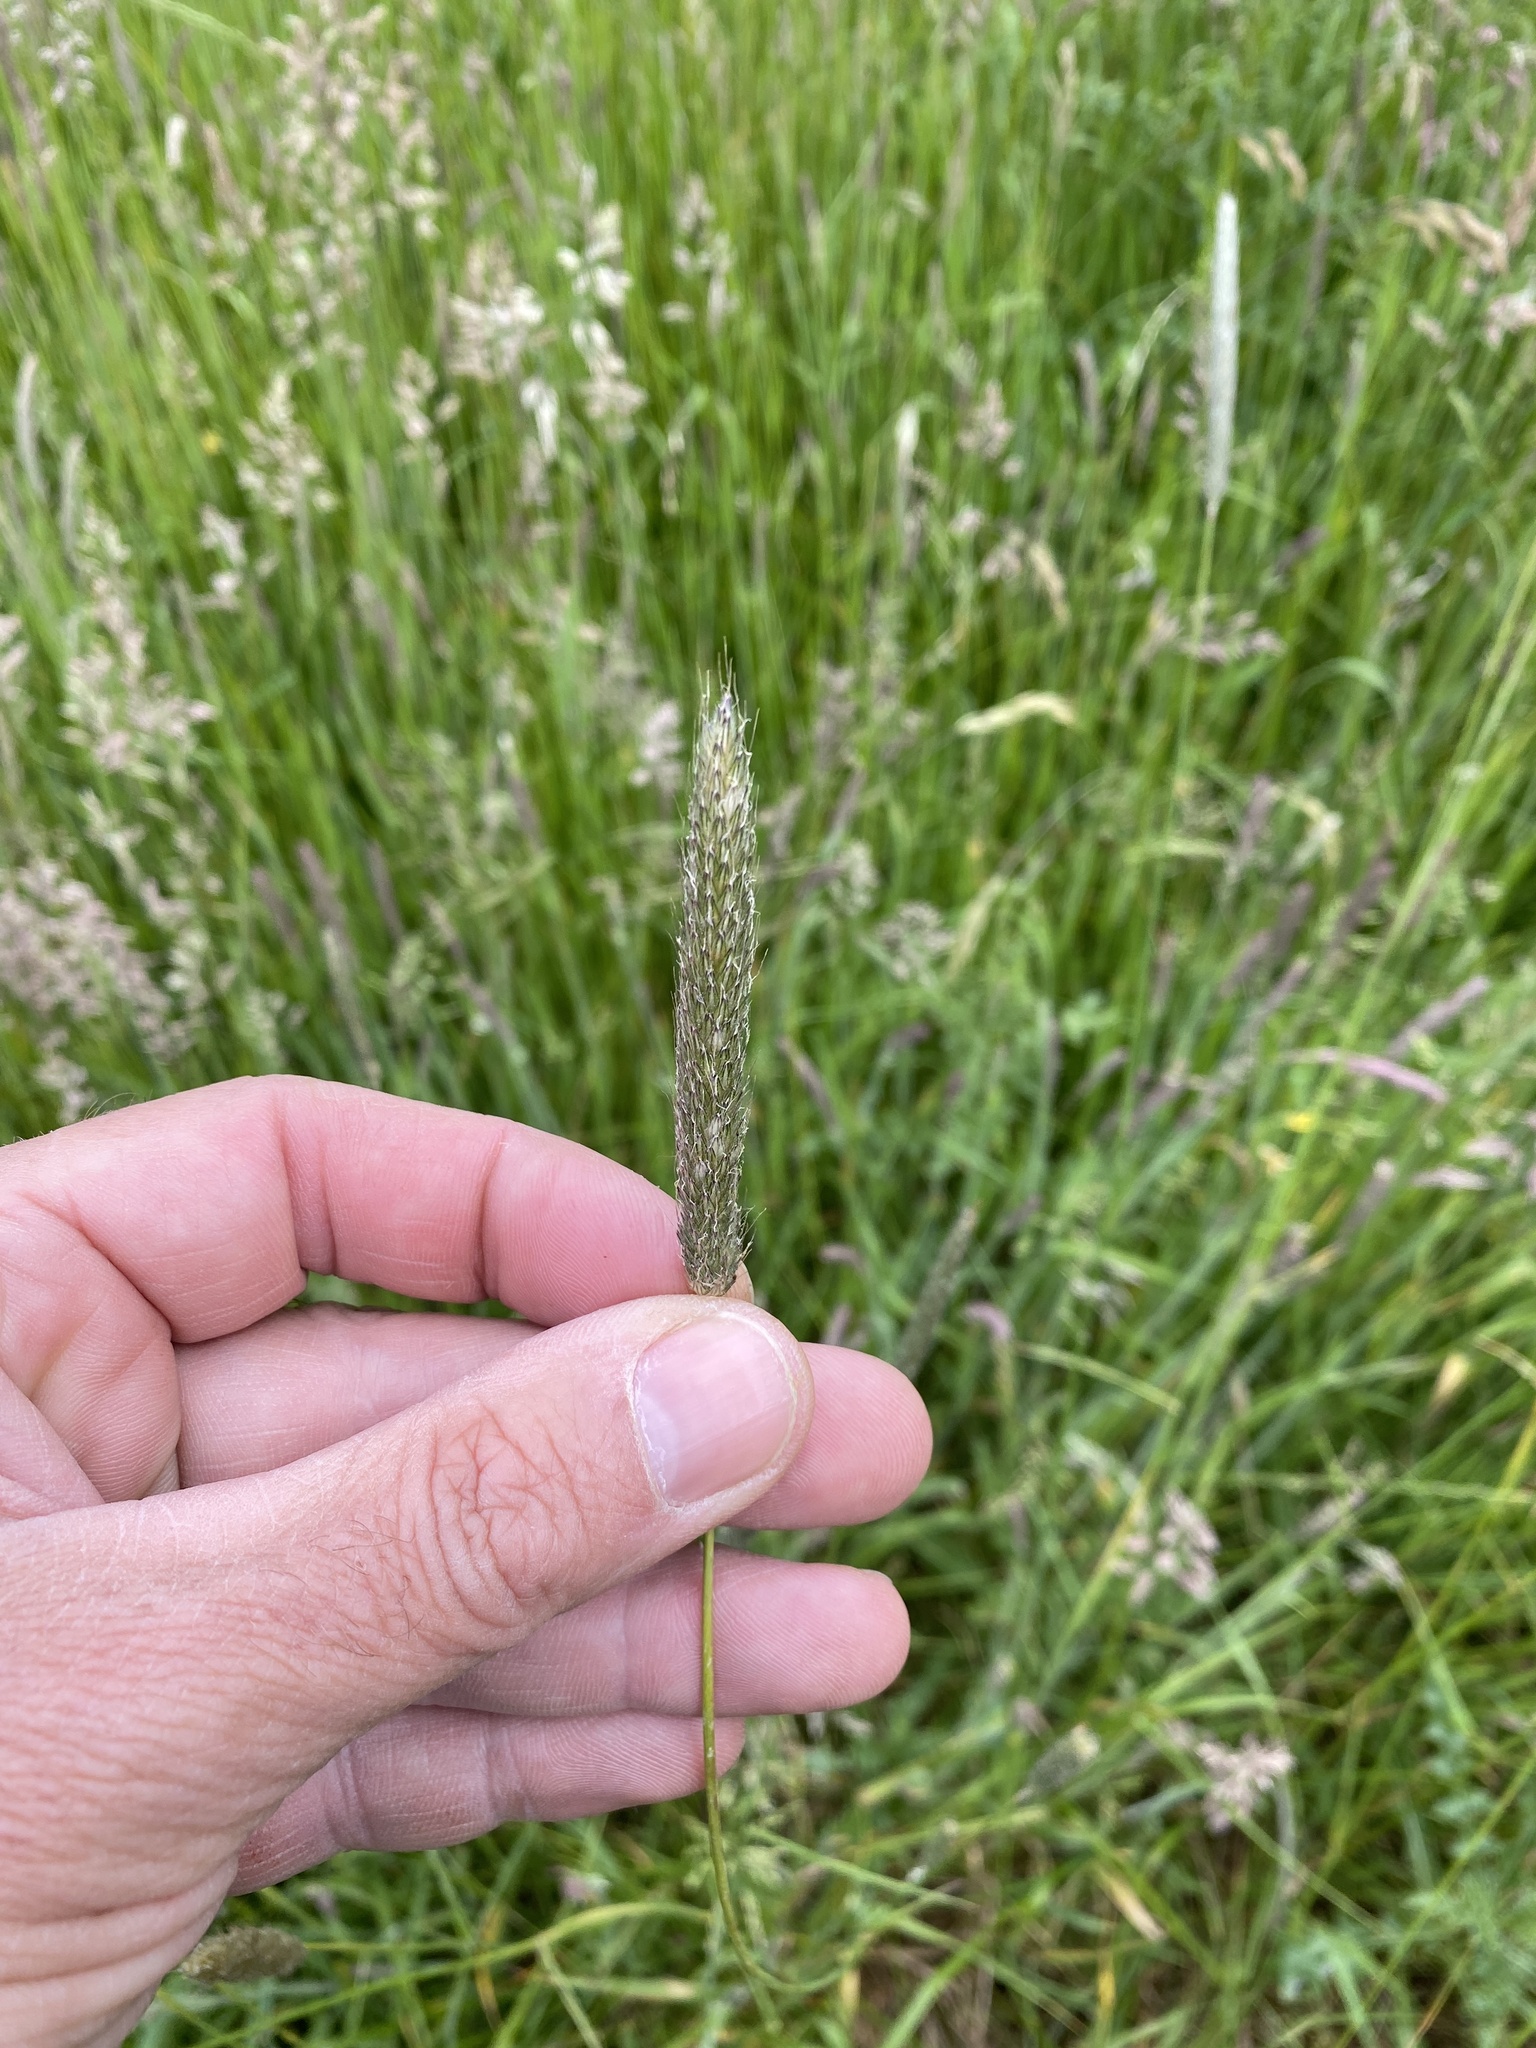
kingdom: Plantae
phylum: Tracheophyta
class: Liliopsida
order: Poales
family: Poaceae
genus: Alopecurus
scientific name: Alopecurus pratensis
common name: Meadow foxtail
